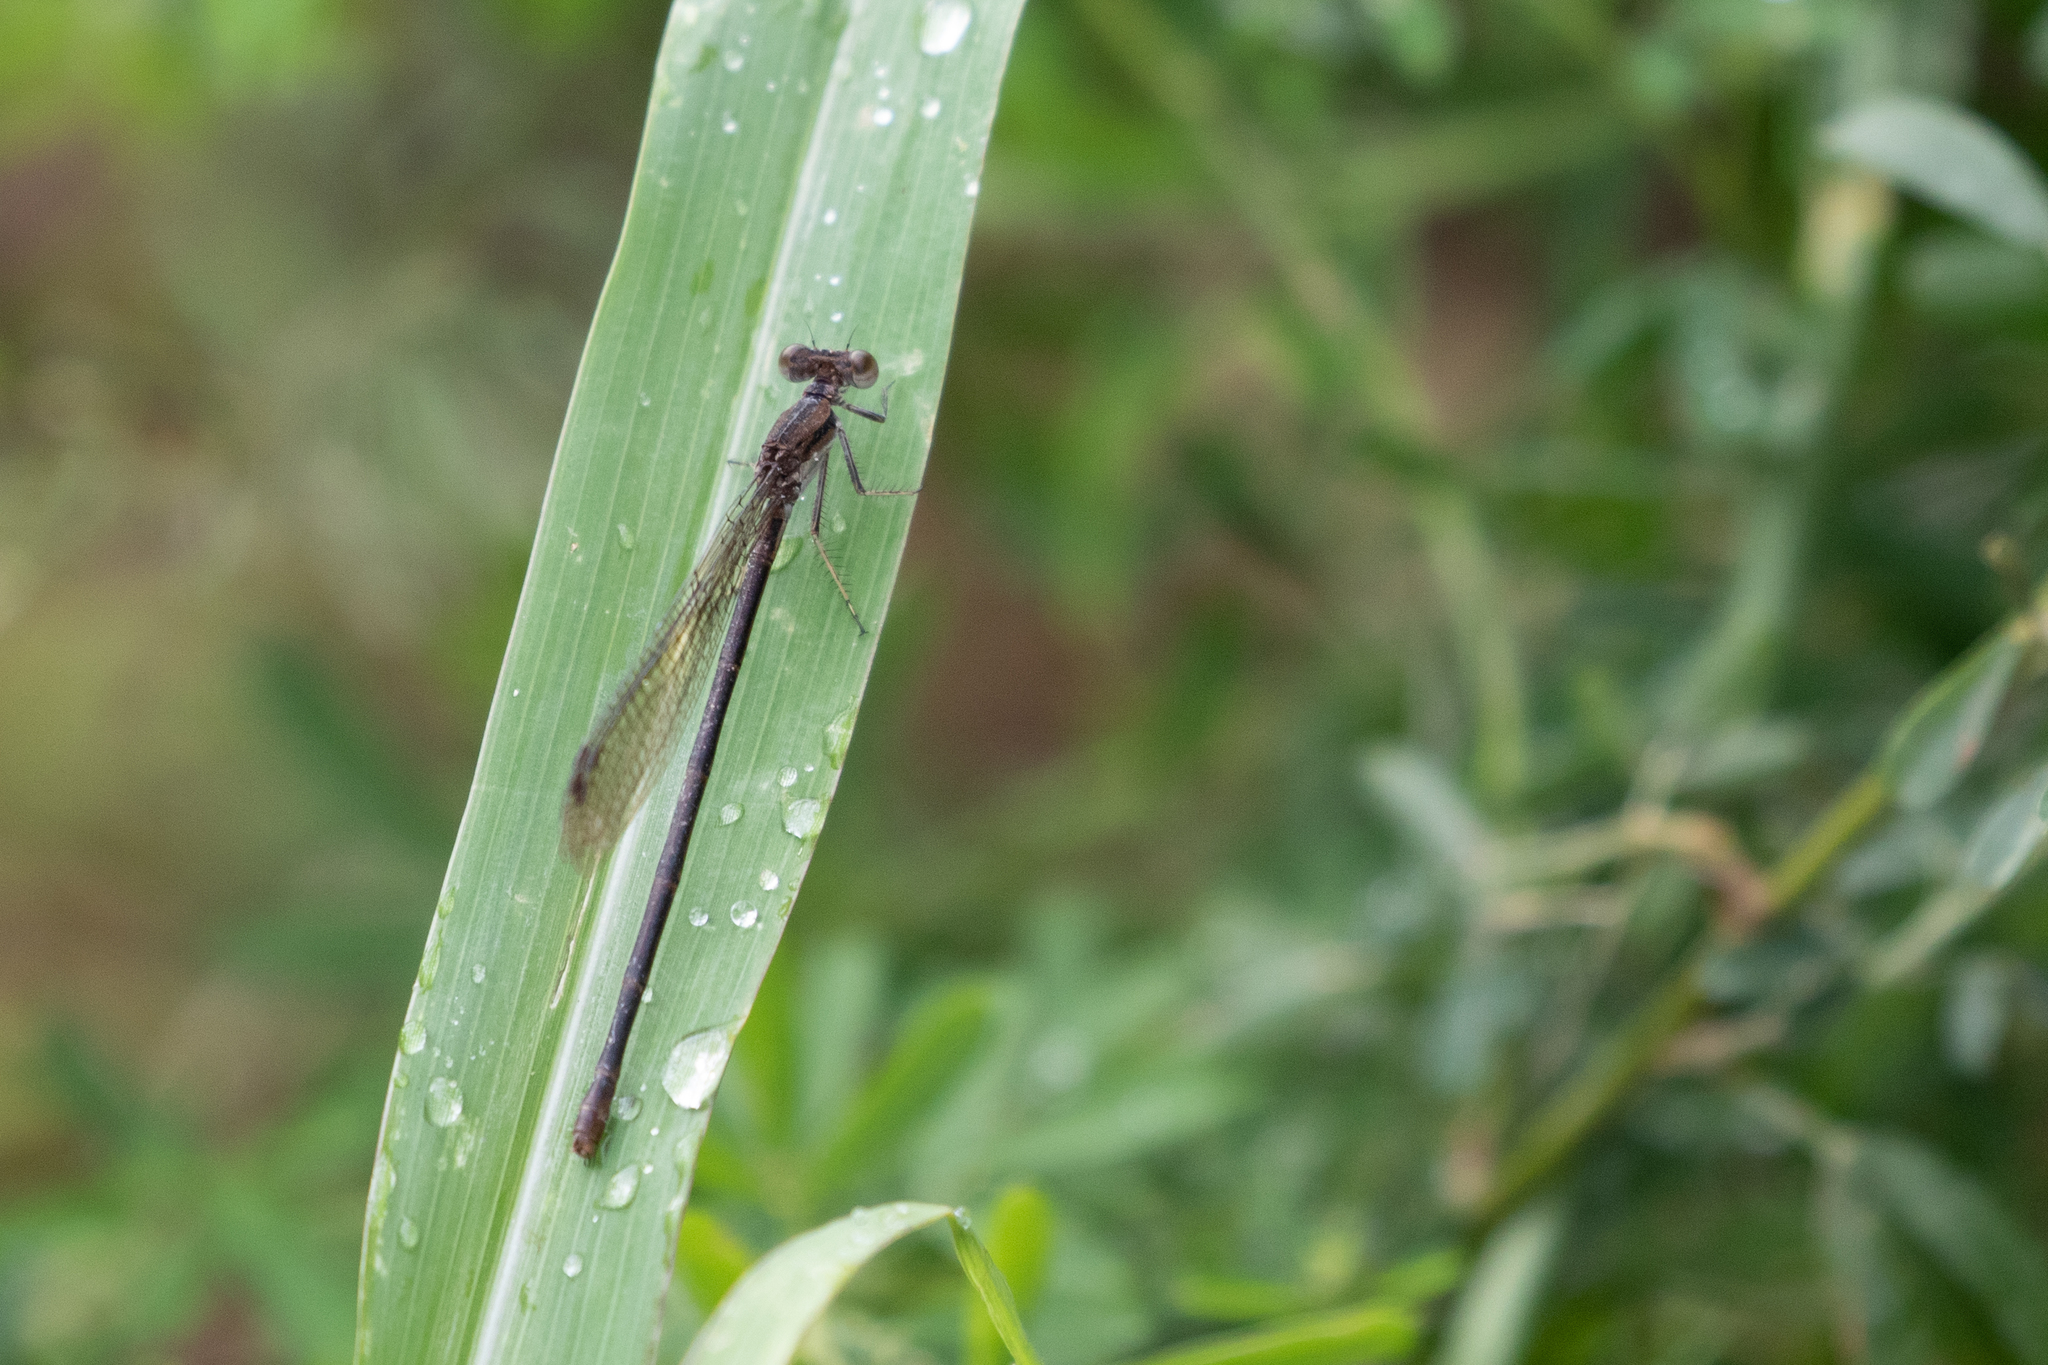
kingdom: Animalia
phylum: Arthropoda
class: Insecta
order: Odonata
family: Coenagrionidae
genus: Argia
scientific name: Argia fumipennis
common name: Variable dancer
